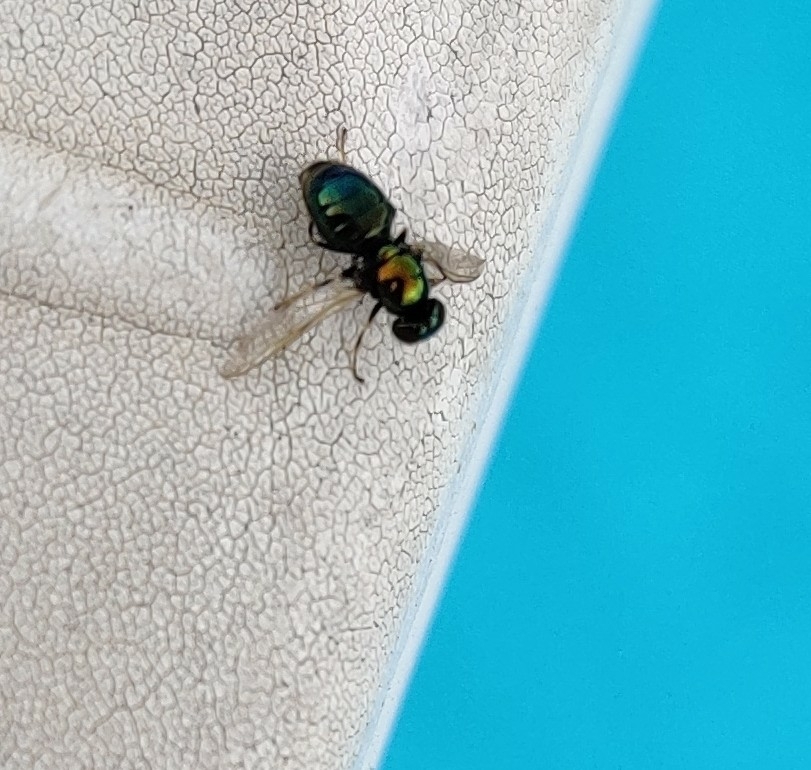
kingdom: Animalia
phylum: Arthropoda
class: Insecta
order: Diptera
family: Stratiomyidae
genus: Microchrysa
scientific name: Microchrysa polita
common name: Black-horned gem
